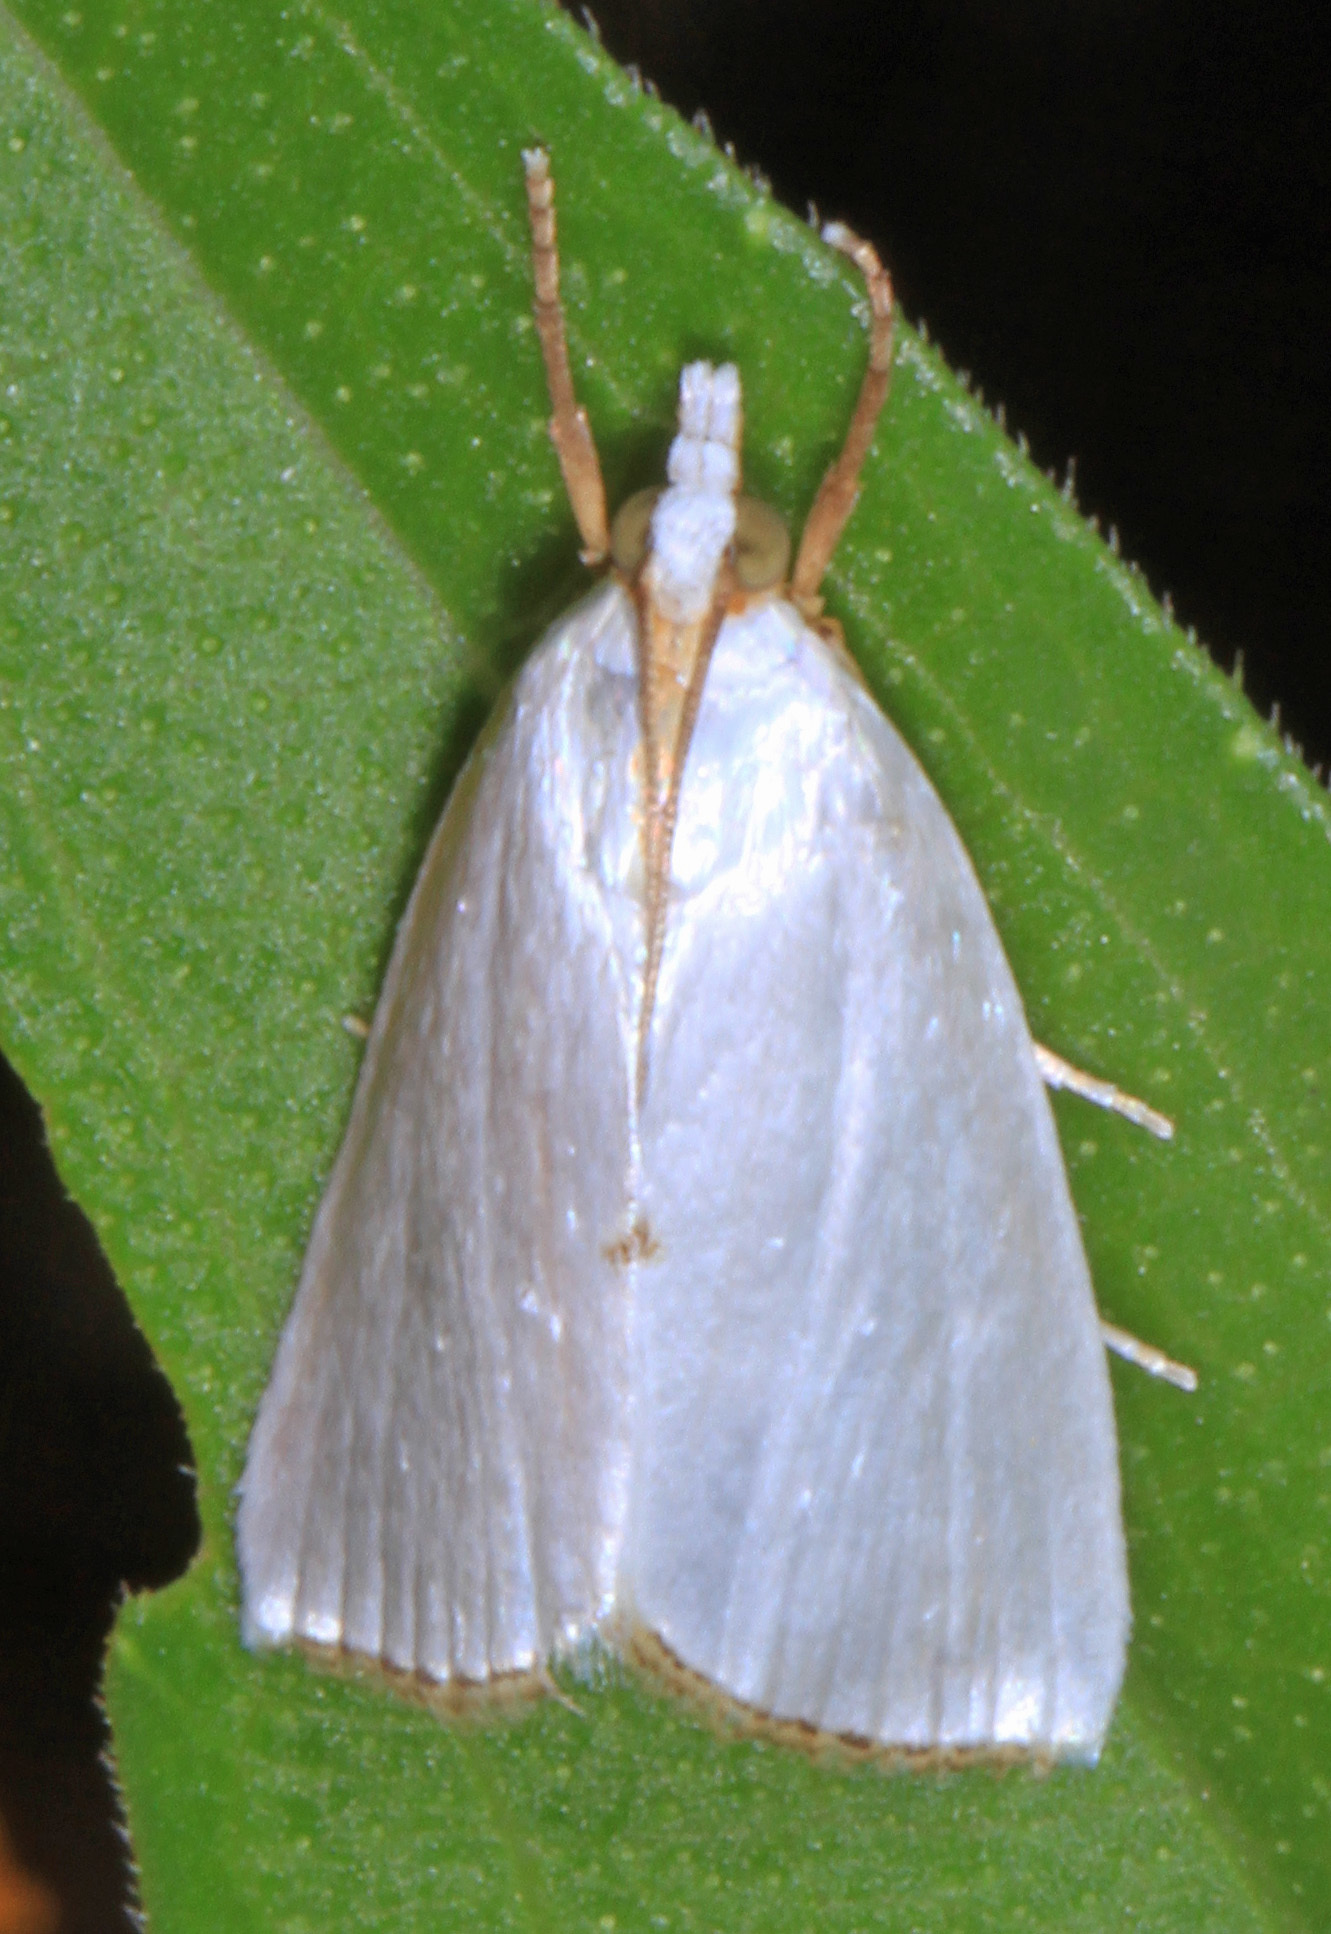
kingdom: Animalia
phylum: Arthropoda
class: Insecta
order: Lepidoptera
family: Crambidae
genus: Argyria
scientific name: Argyria nivalis
